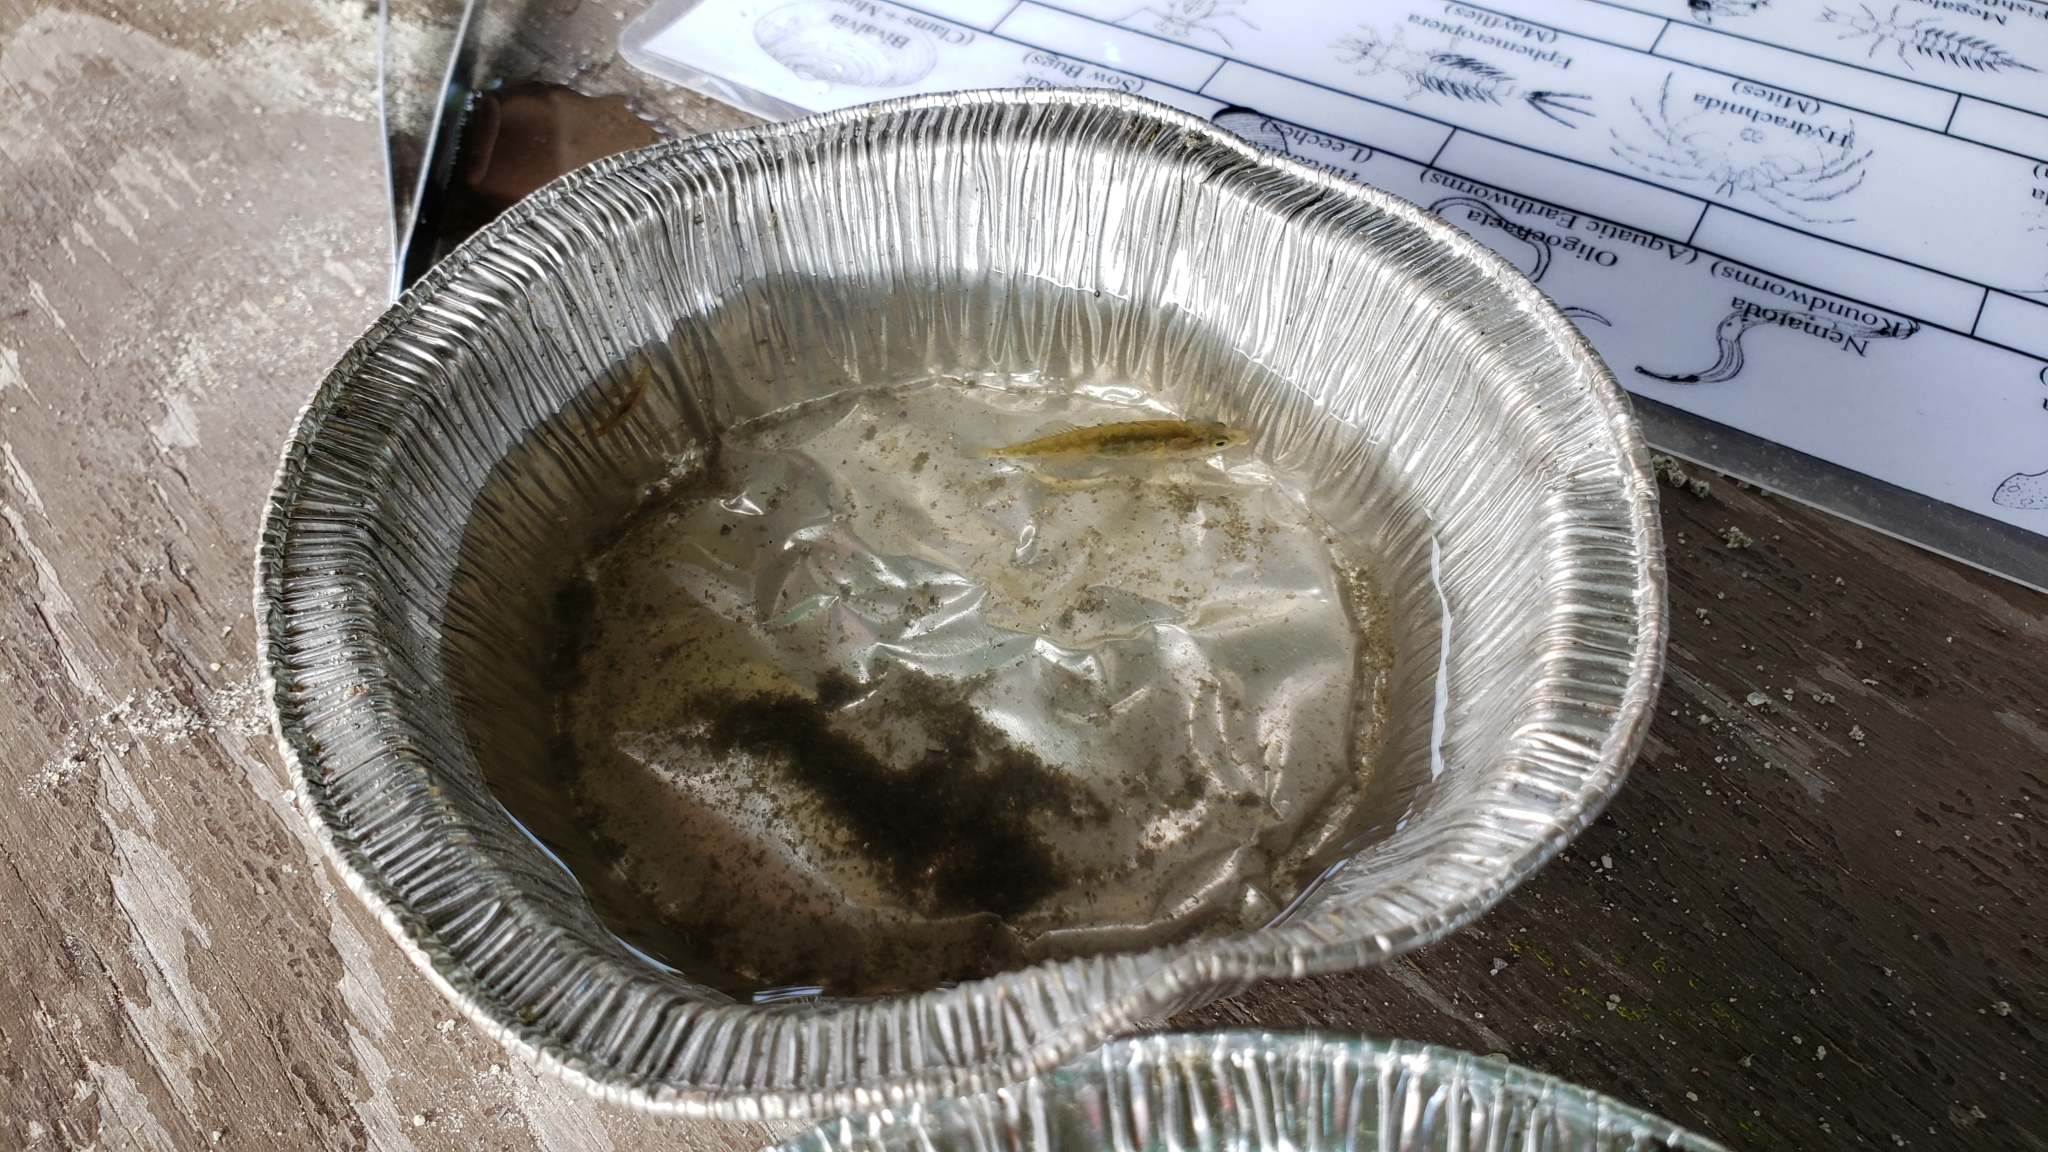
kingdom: Animalia
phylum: Chordata
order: Gasterosteiformes
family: Gasterosteidae
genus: Culaea
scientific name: Culaea inconstans
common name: Brook stickleback
